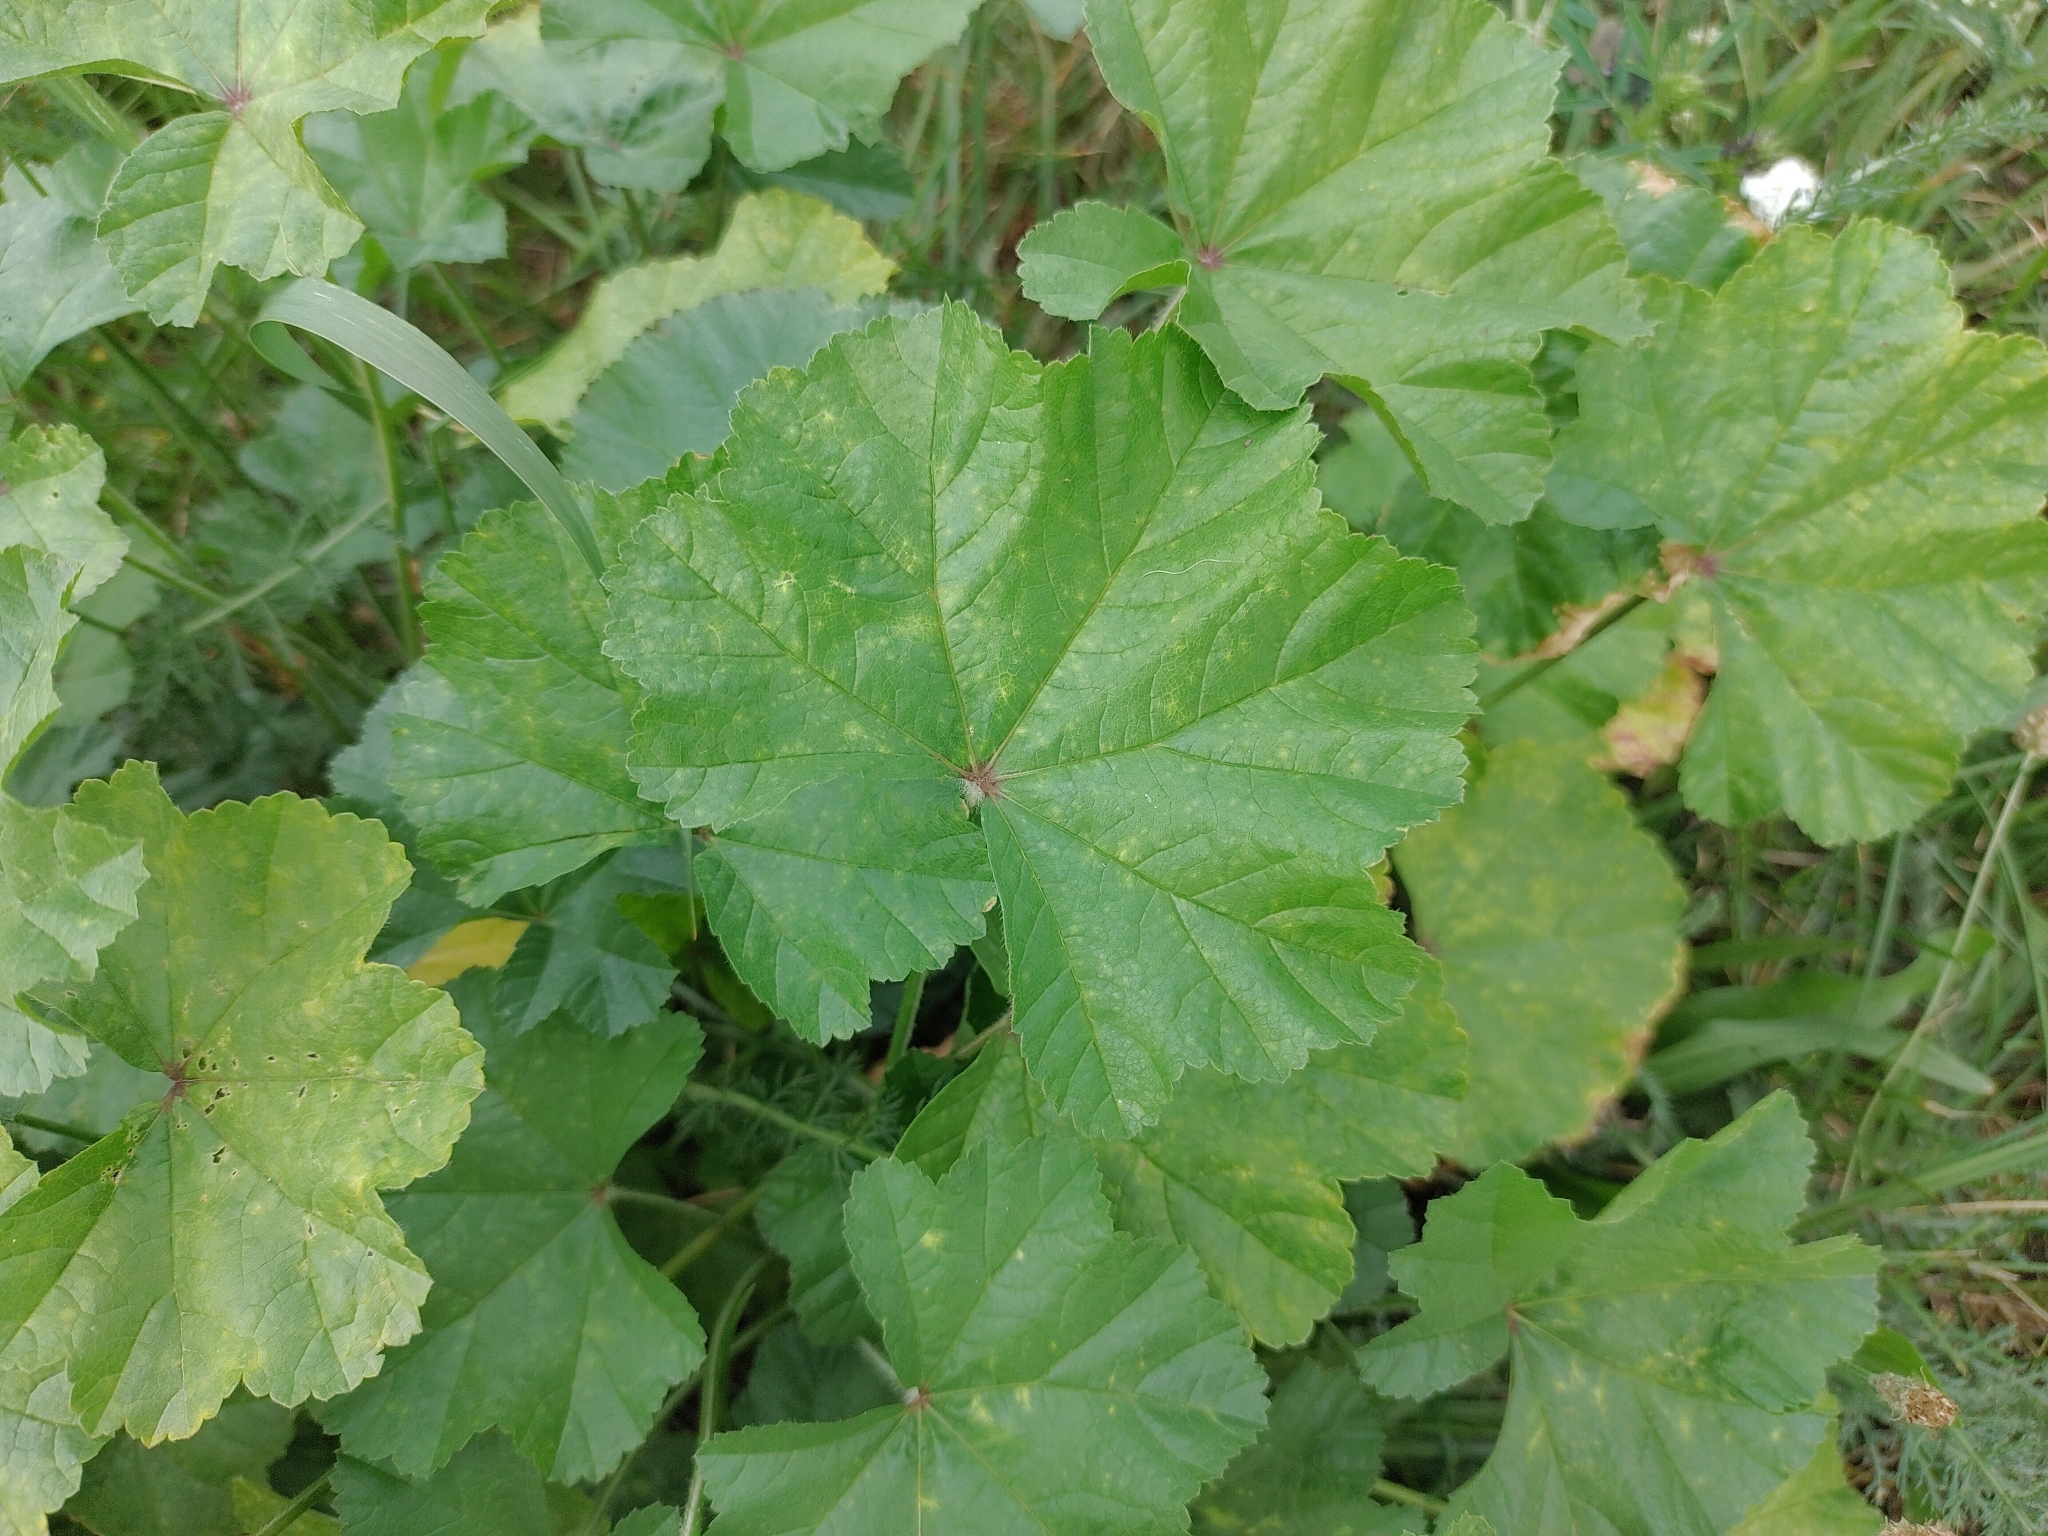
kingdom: Plantae
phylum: Tracheophyta
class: Magnoliopsida
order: Malvales
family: Malvaceae
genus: Malva
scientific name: Malva sylvestris
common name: Common mallow
